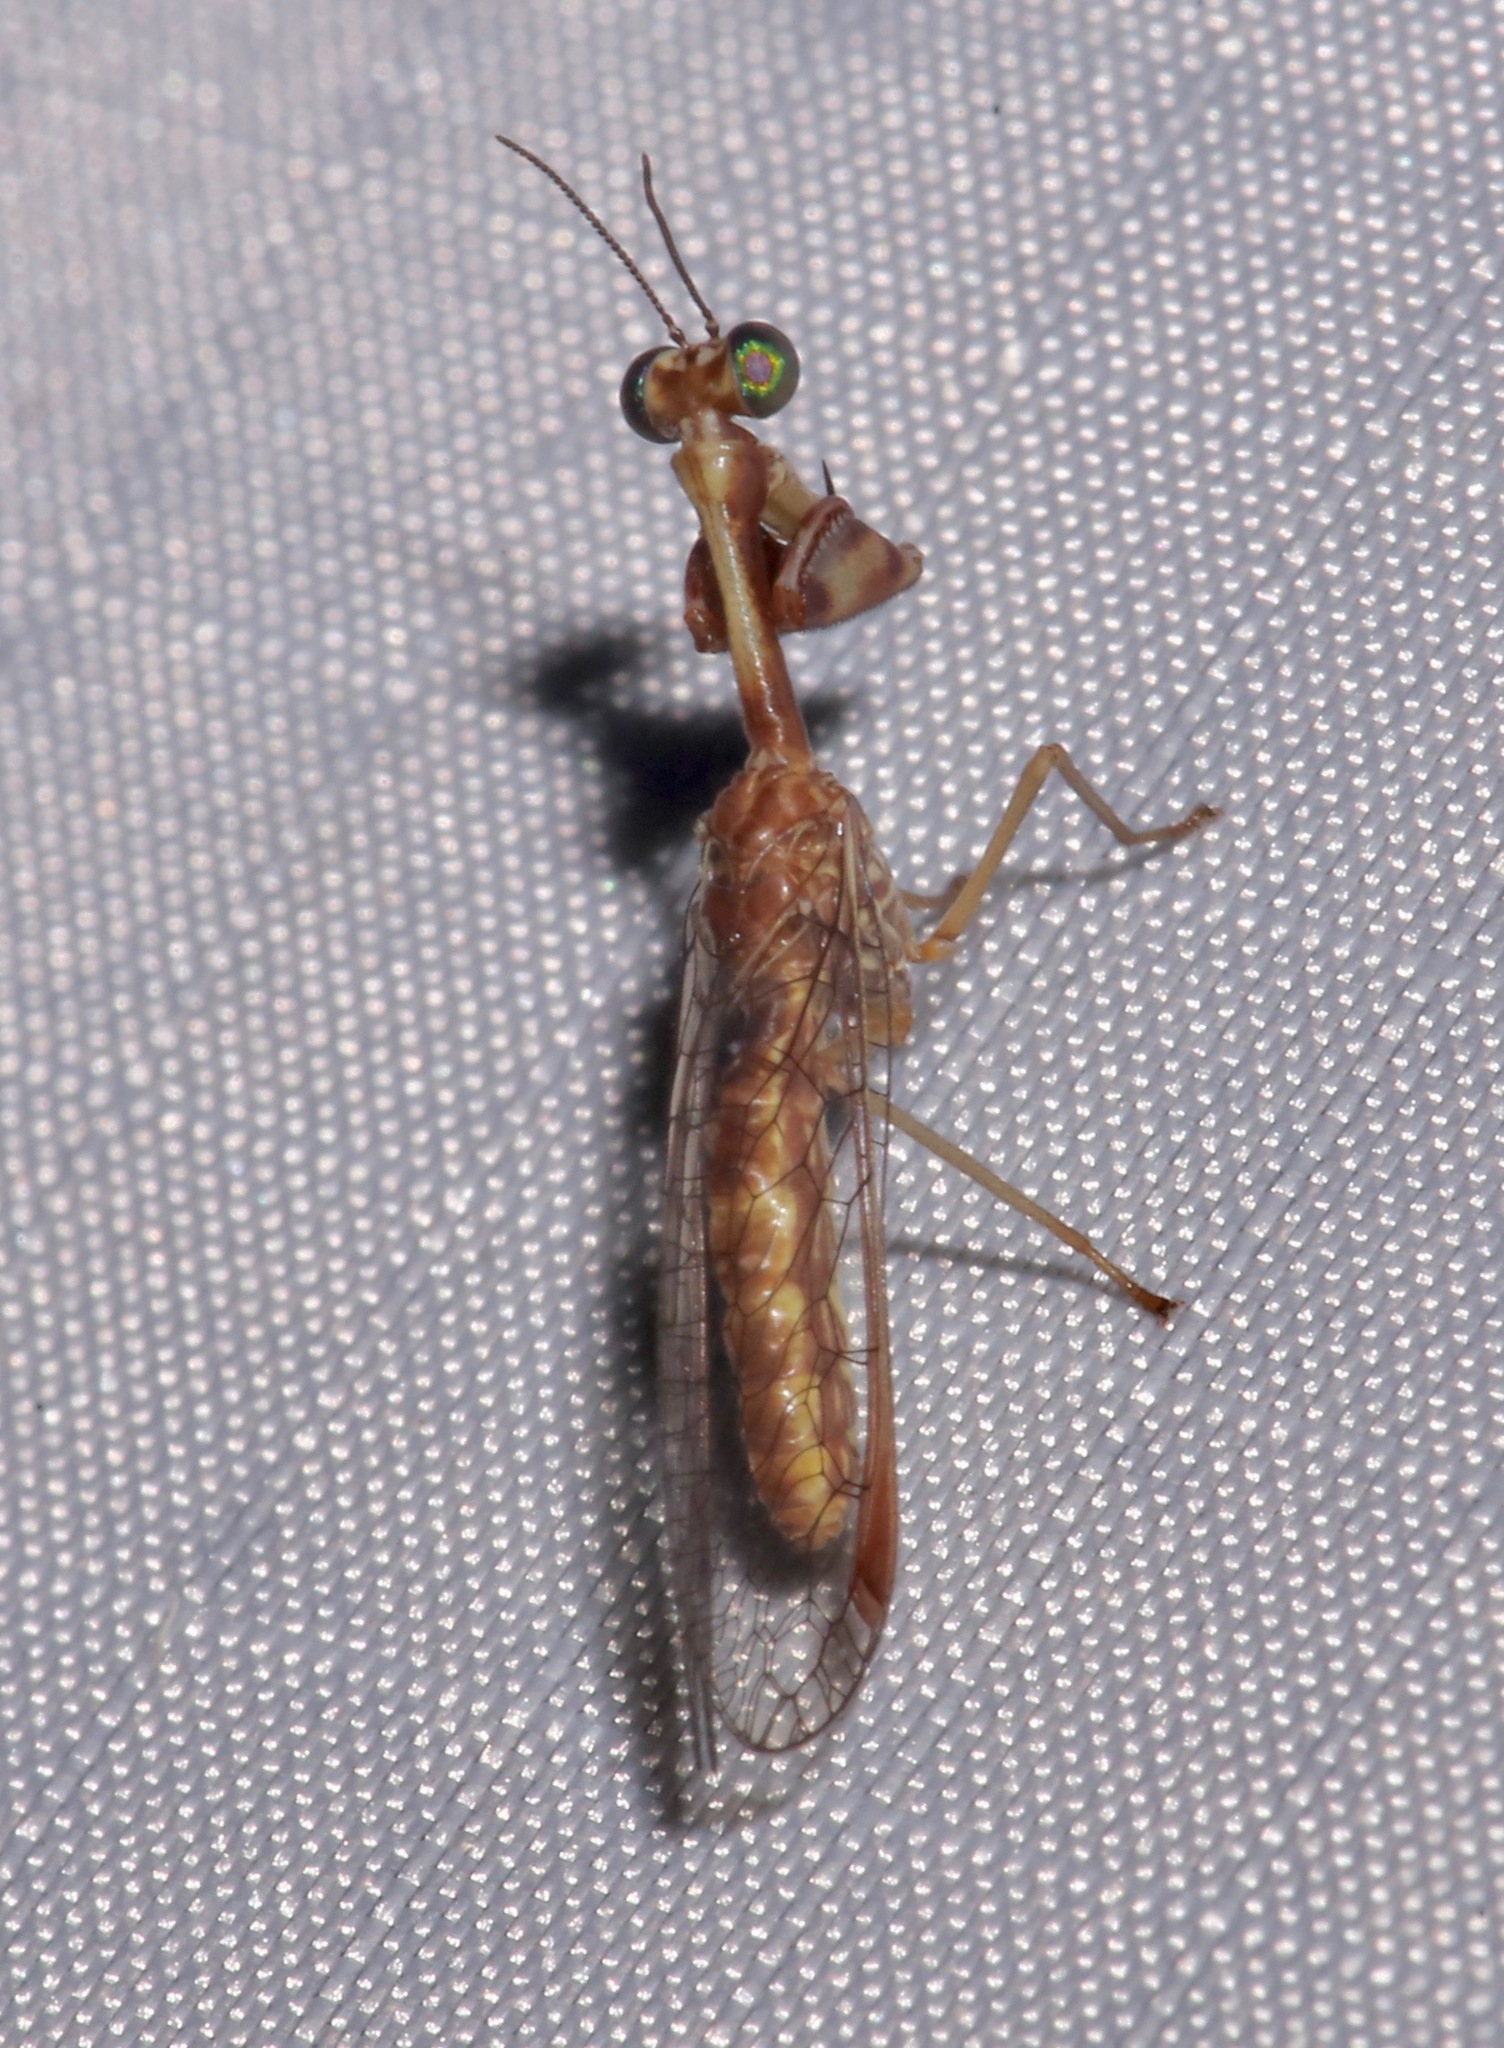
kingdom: Animalia
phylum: Arthropoda
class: Insecta
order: Neuroptera
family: Mantispidae
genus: Leptomantispa
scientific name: Leptomantispa pulchella
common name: Stevens's mantidfly
